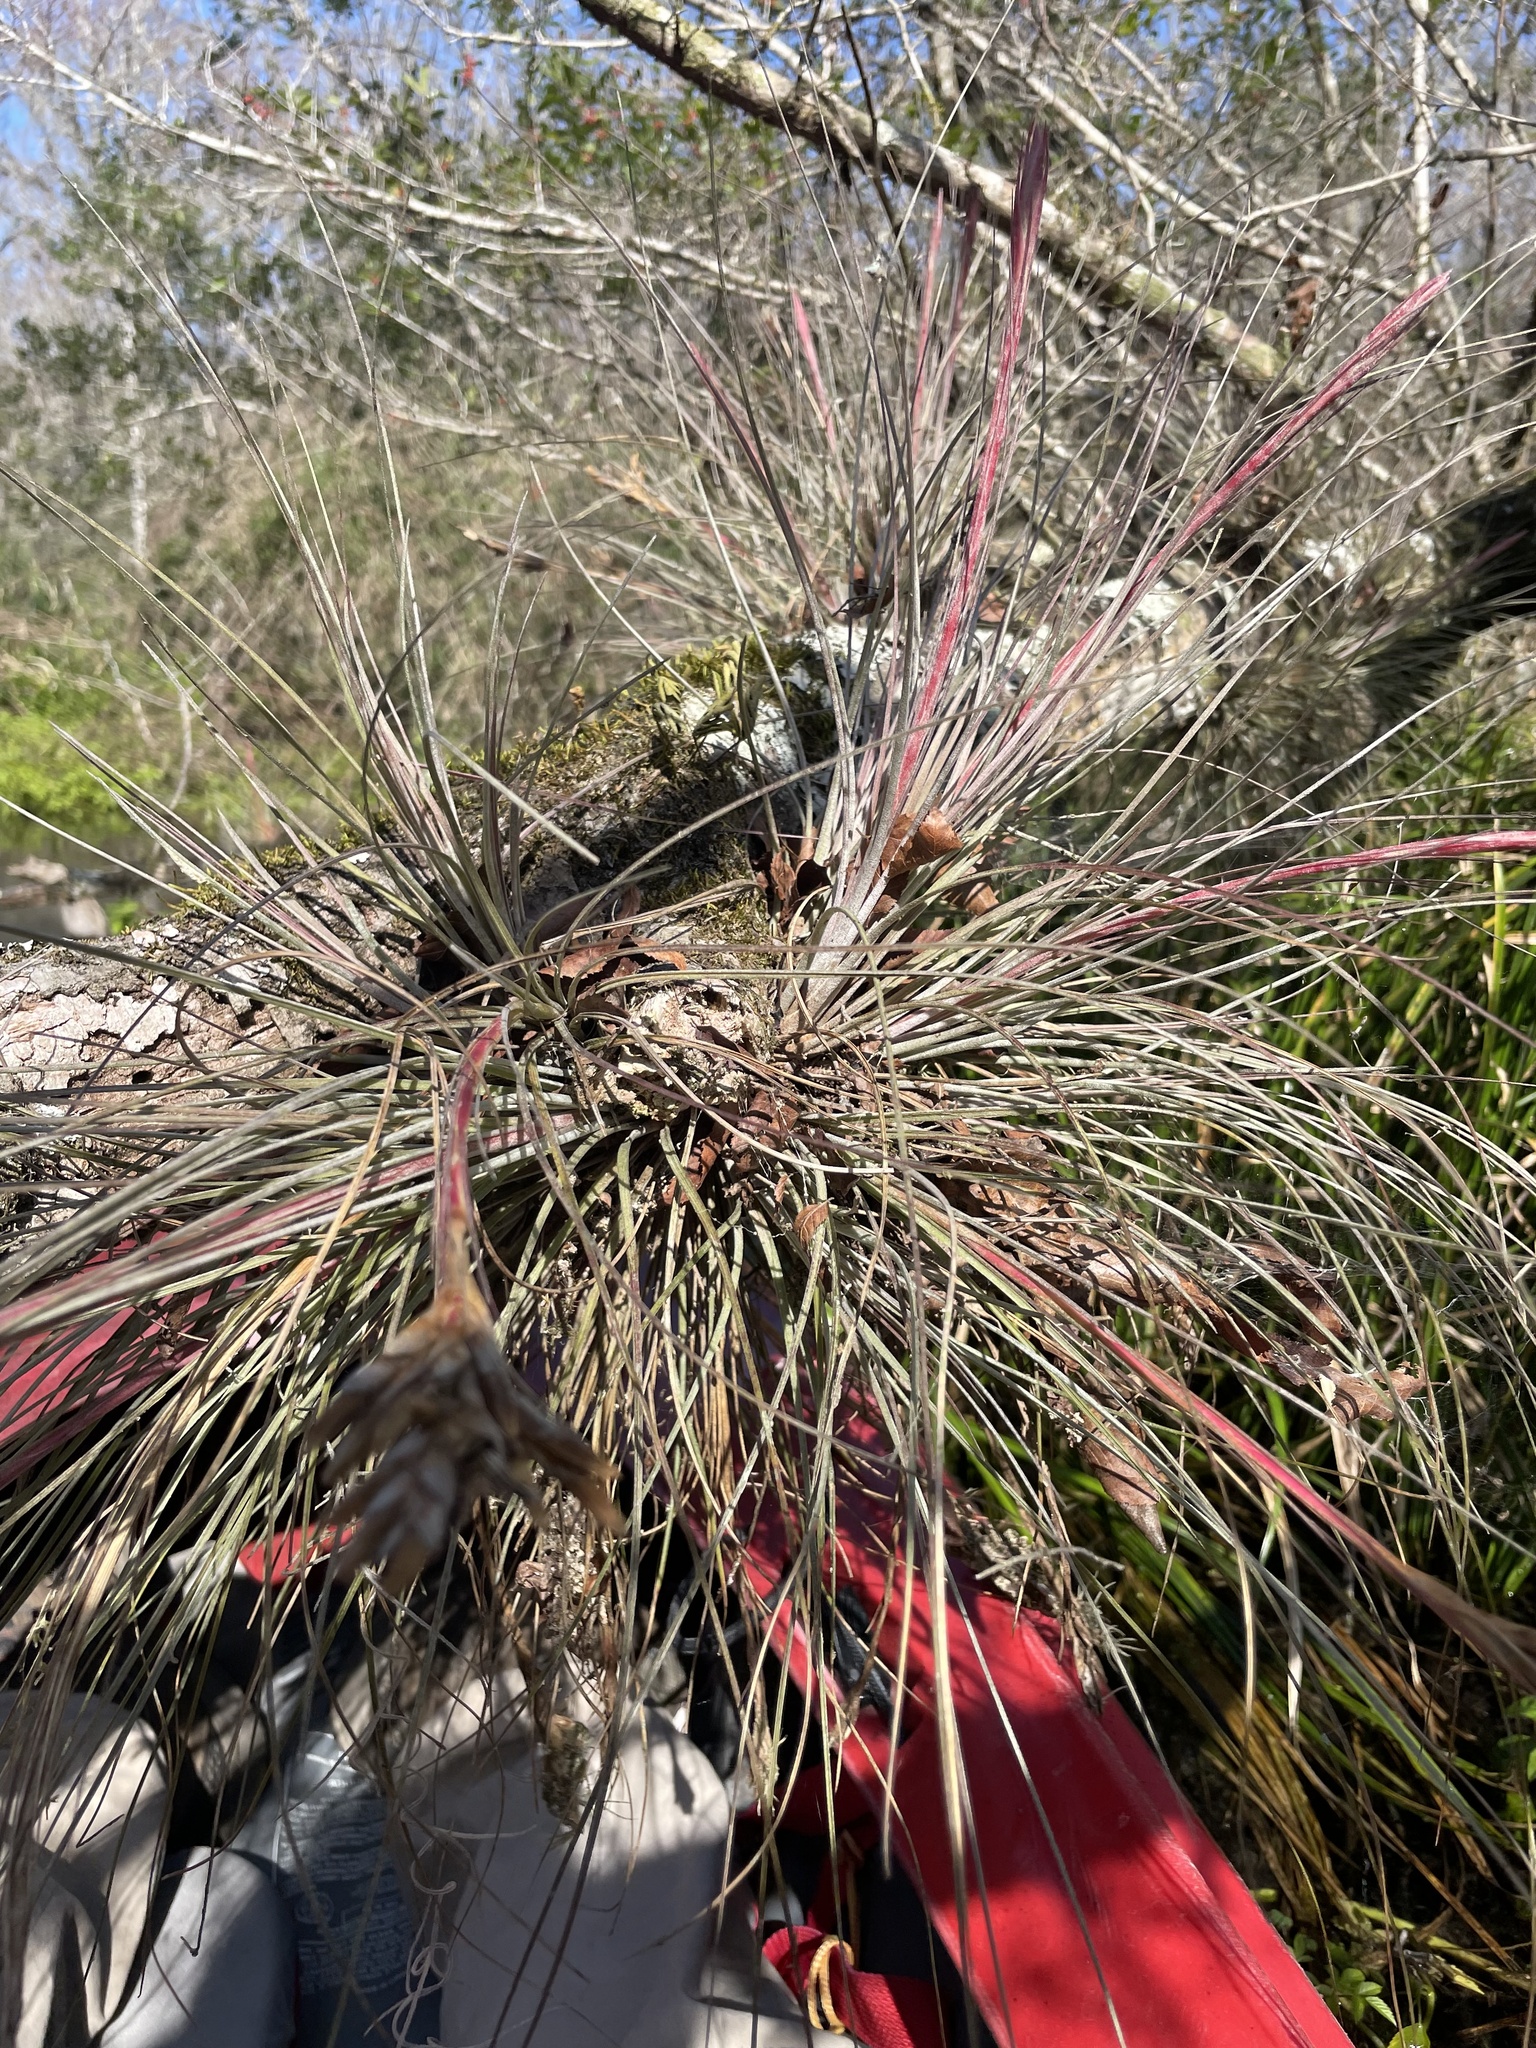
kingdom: Plantae
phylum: Tracheophyta
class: Liliopsida
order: Poales
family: Bromeliaceae
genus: Tillandsia
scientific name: Tillandsia bartramii
